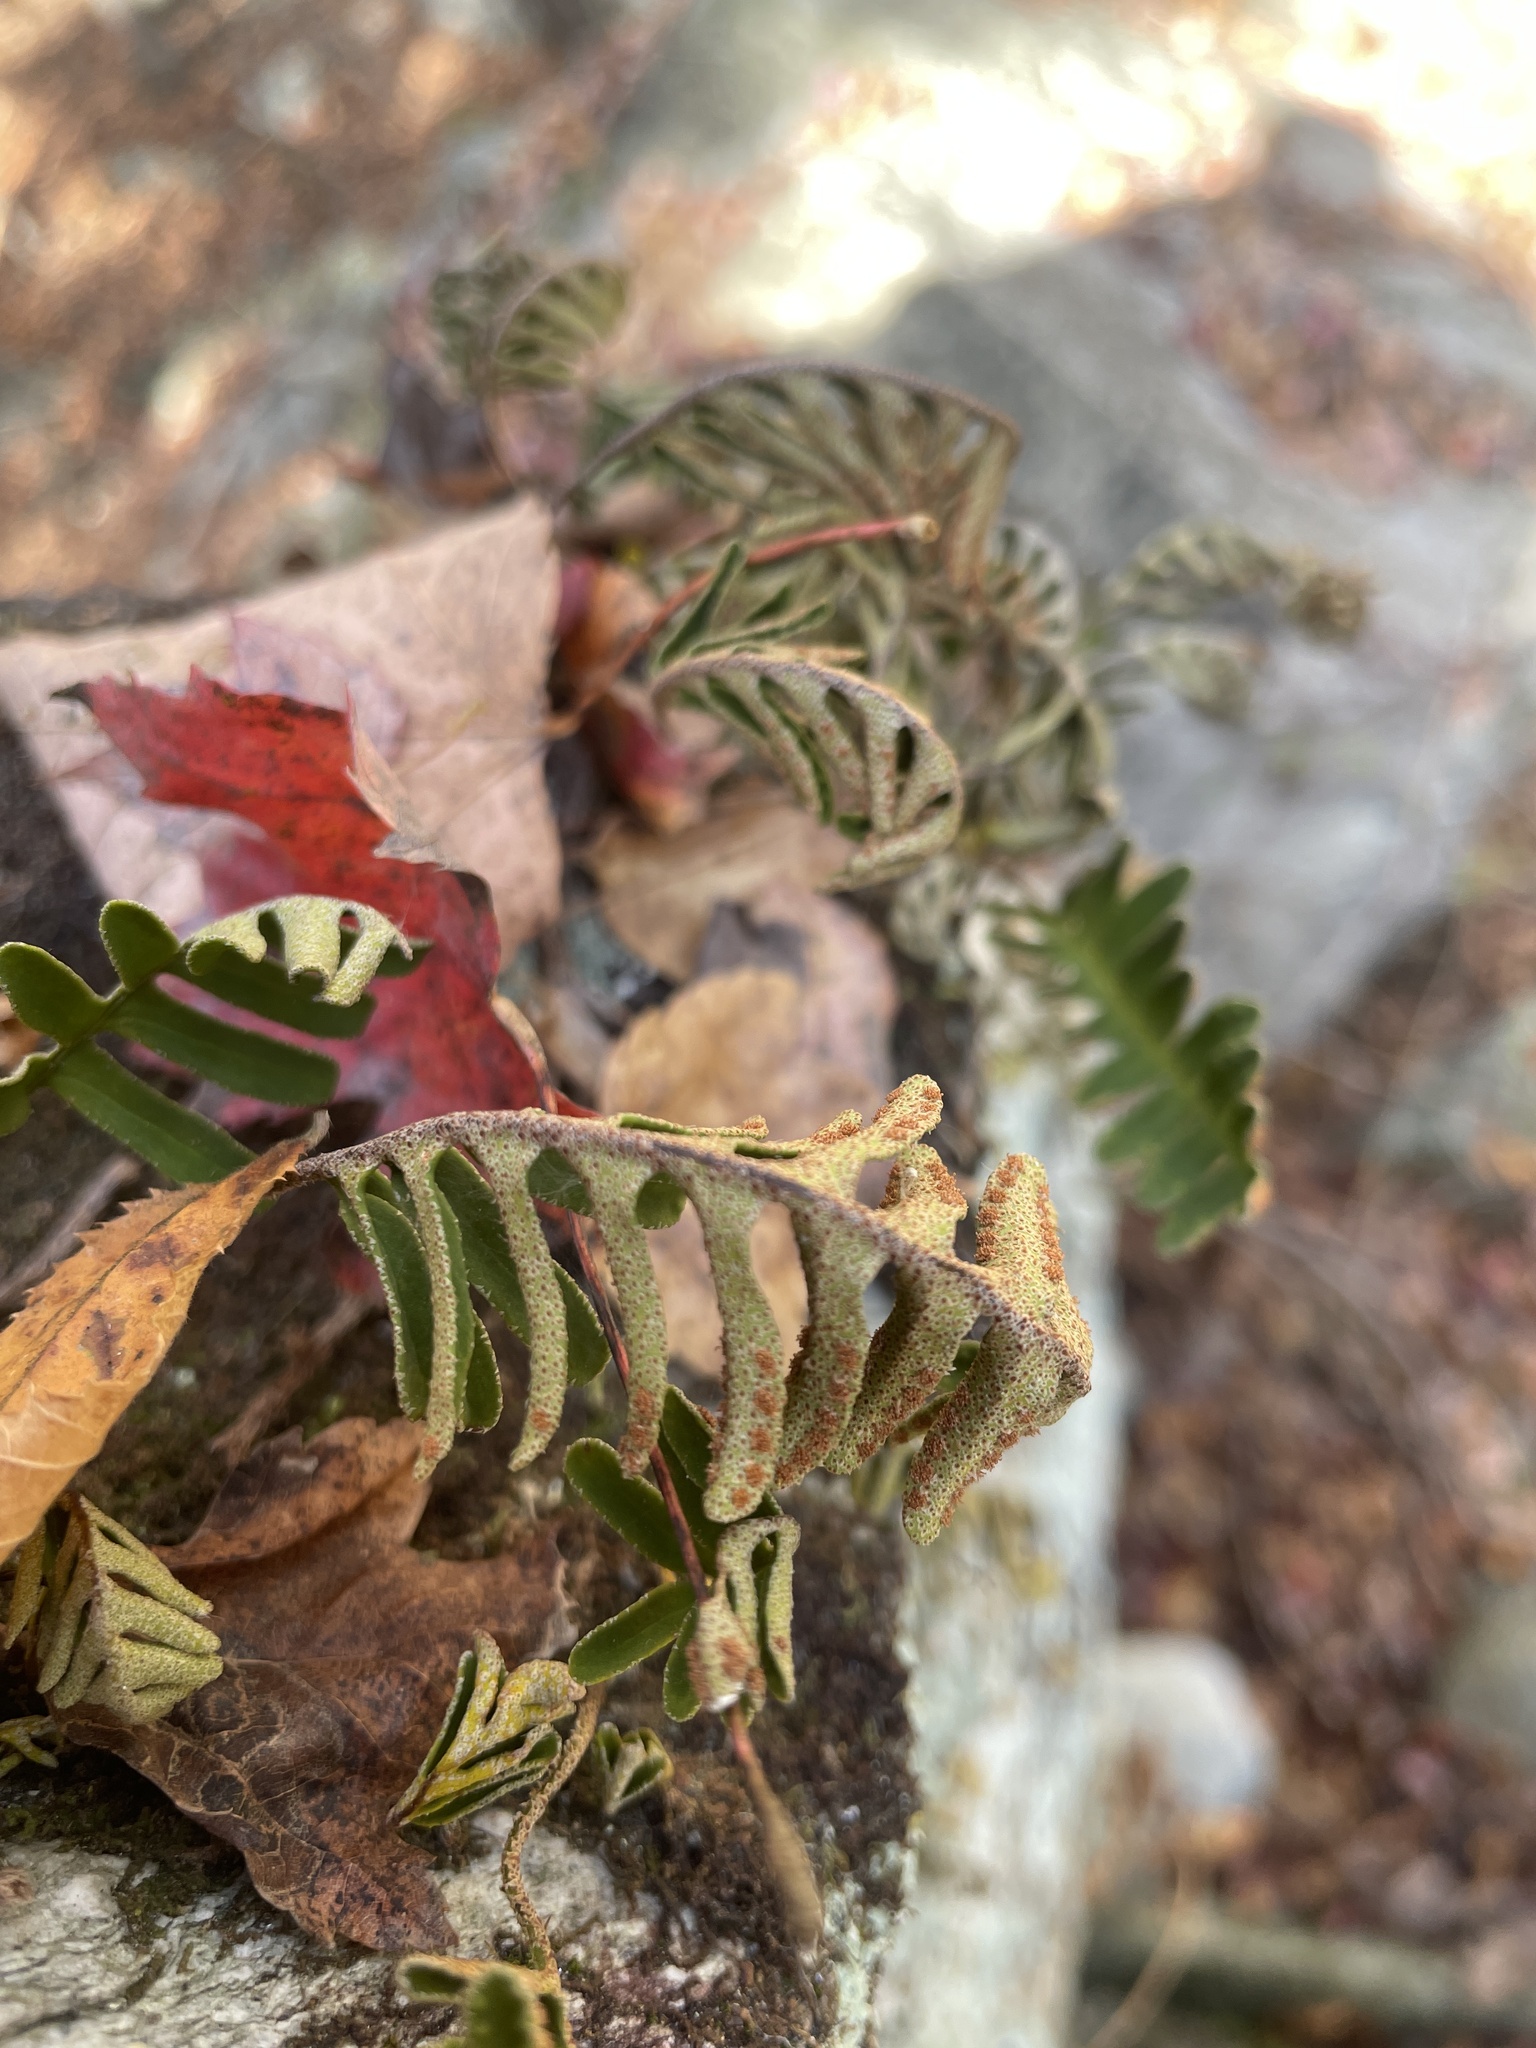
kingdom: Plantae
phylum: Tracheophyta
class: Polypodiopsida
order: Polypodiales
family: Polypodiaceae
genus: Pleopeltis
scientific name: Pleopeltis michauxiana
